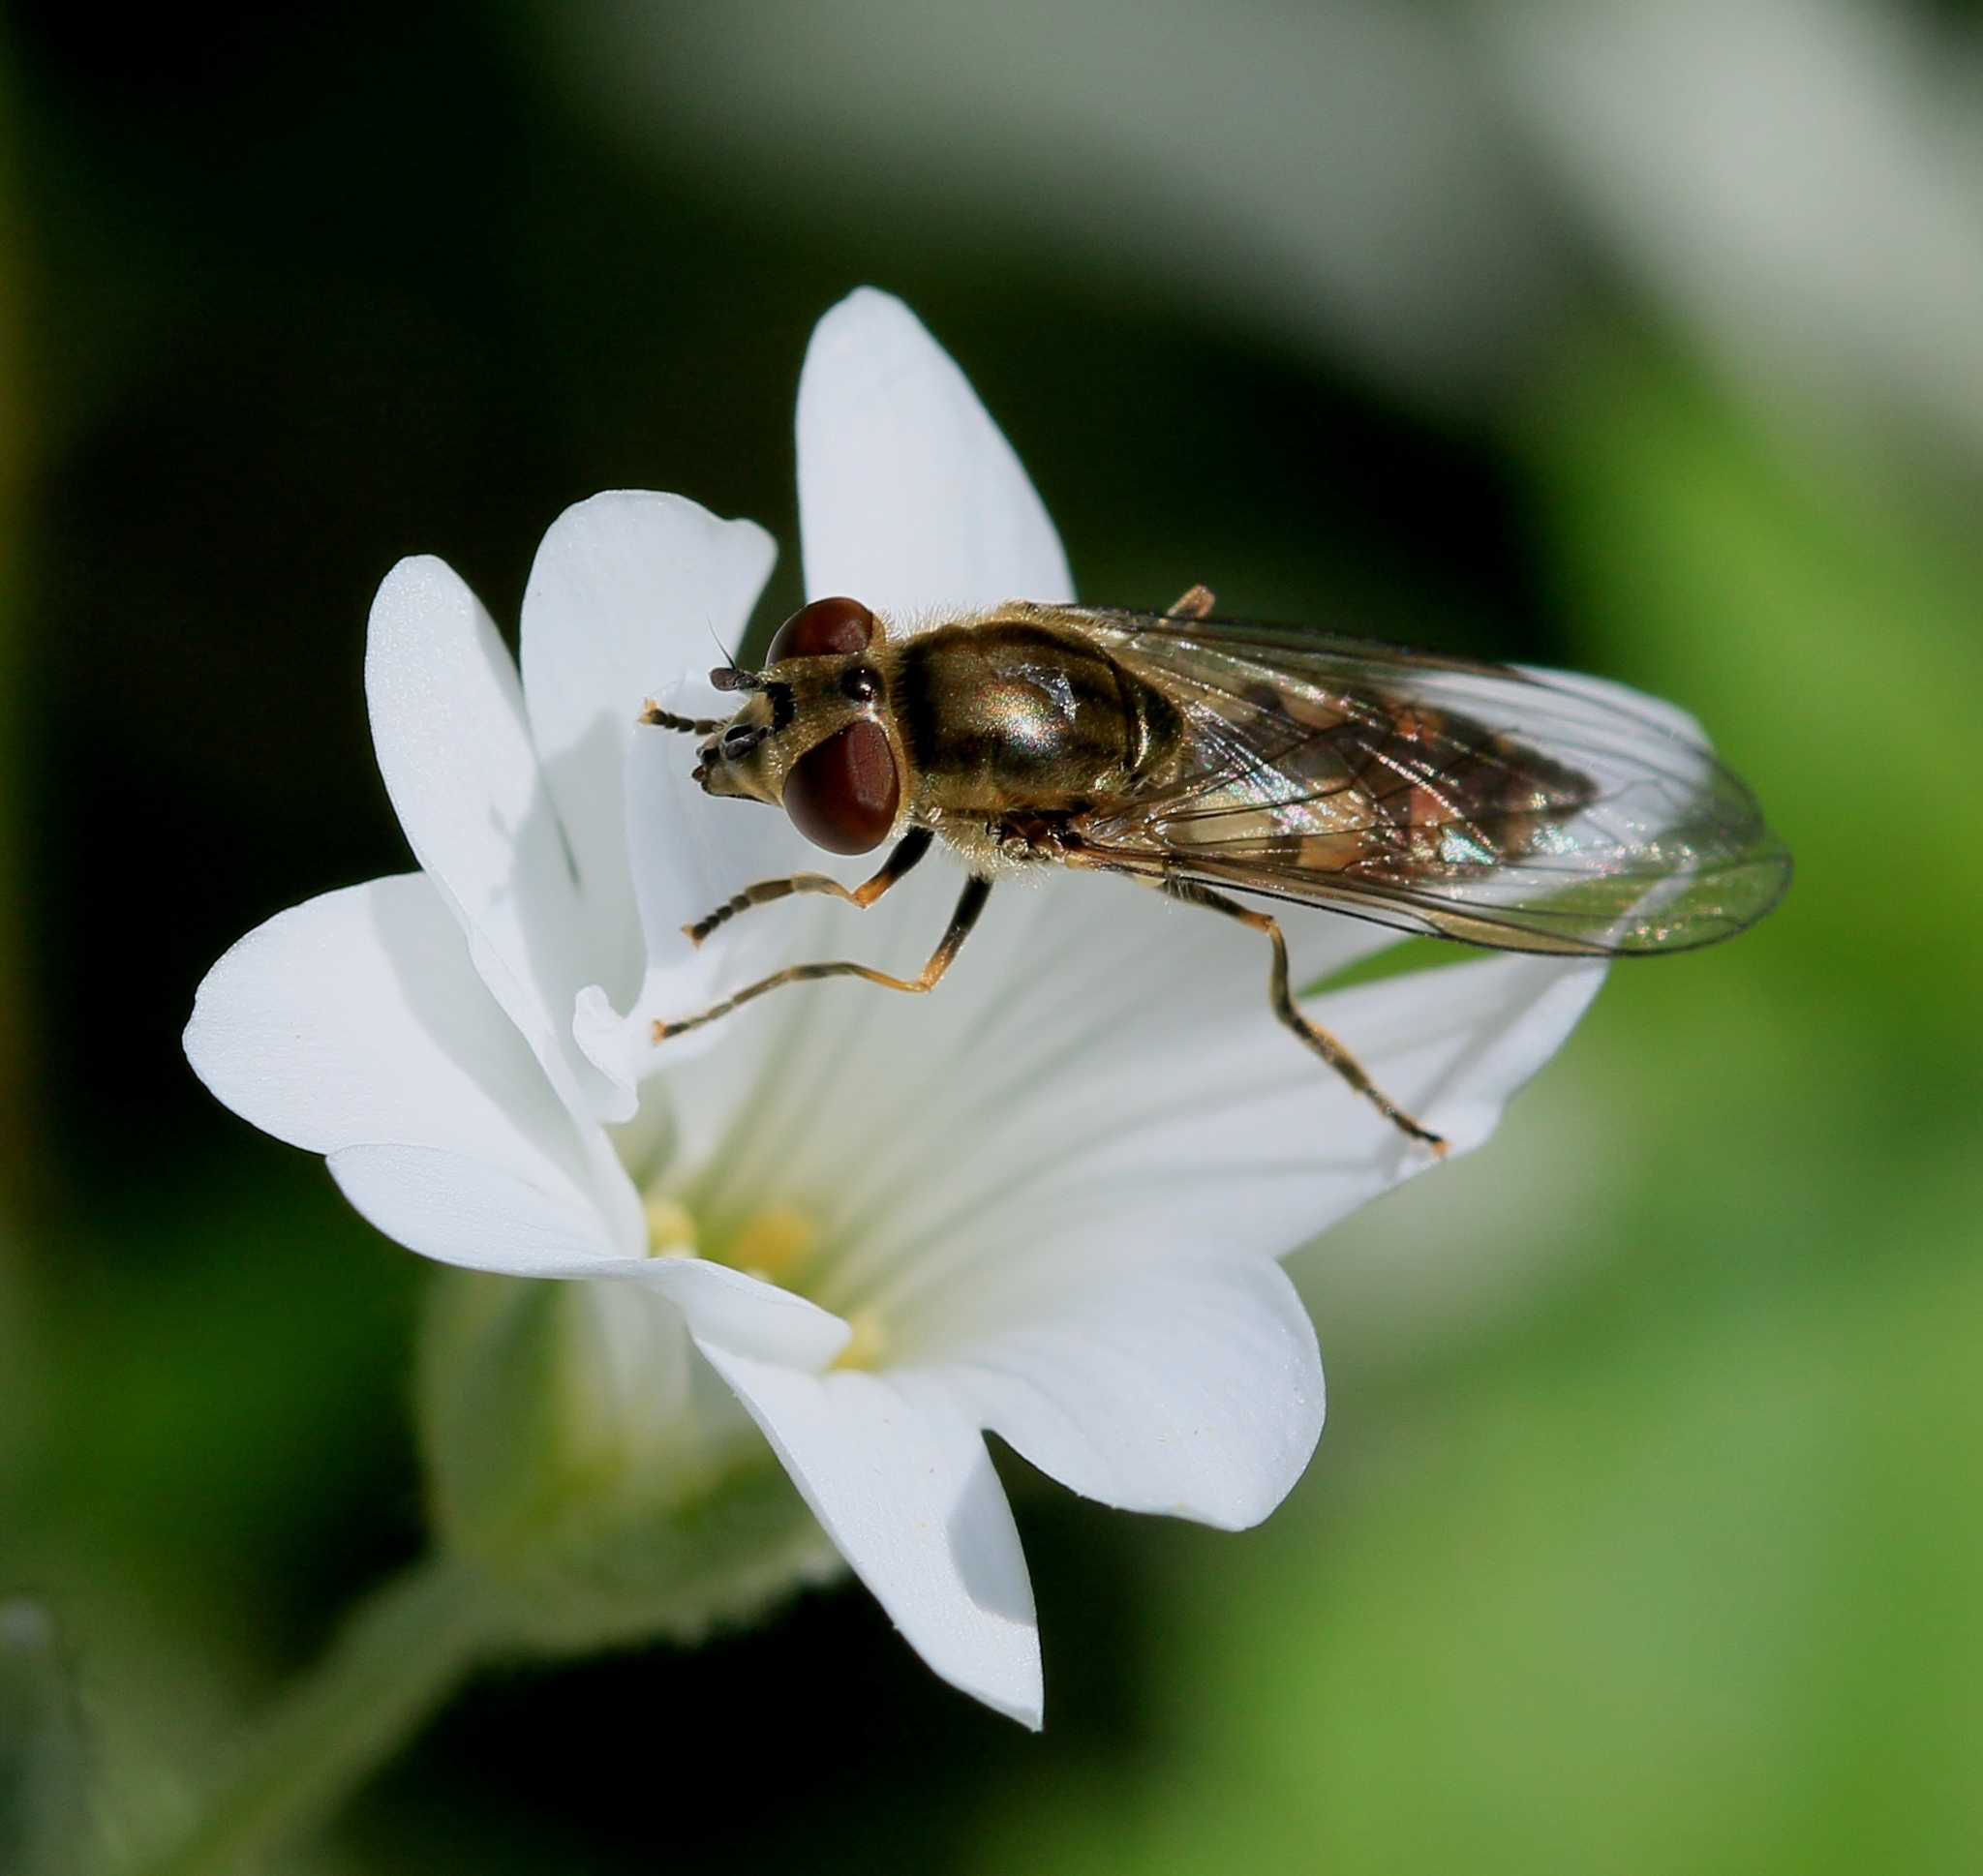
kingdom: Animalia
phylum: Arthropoda
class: Insecta
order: Diptera
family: Syrphidae
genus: Platycheirus
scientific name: Platycheirus manicatus
